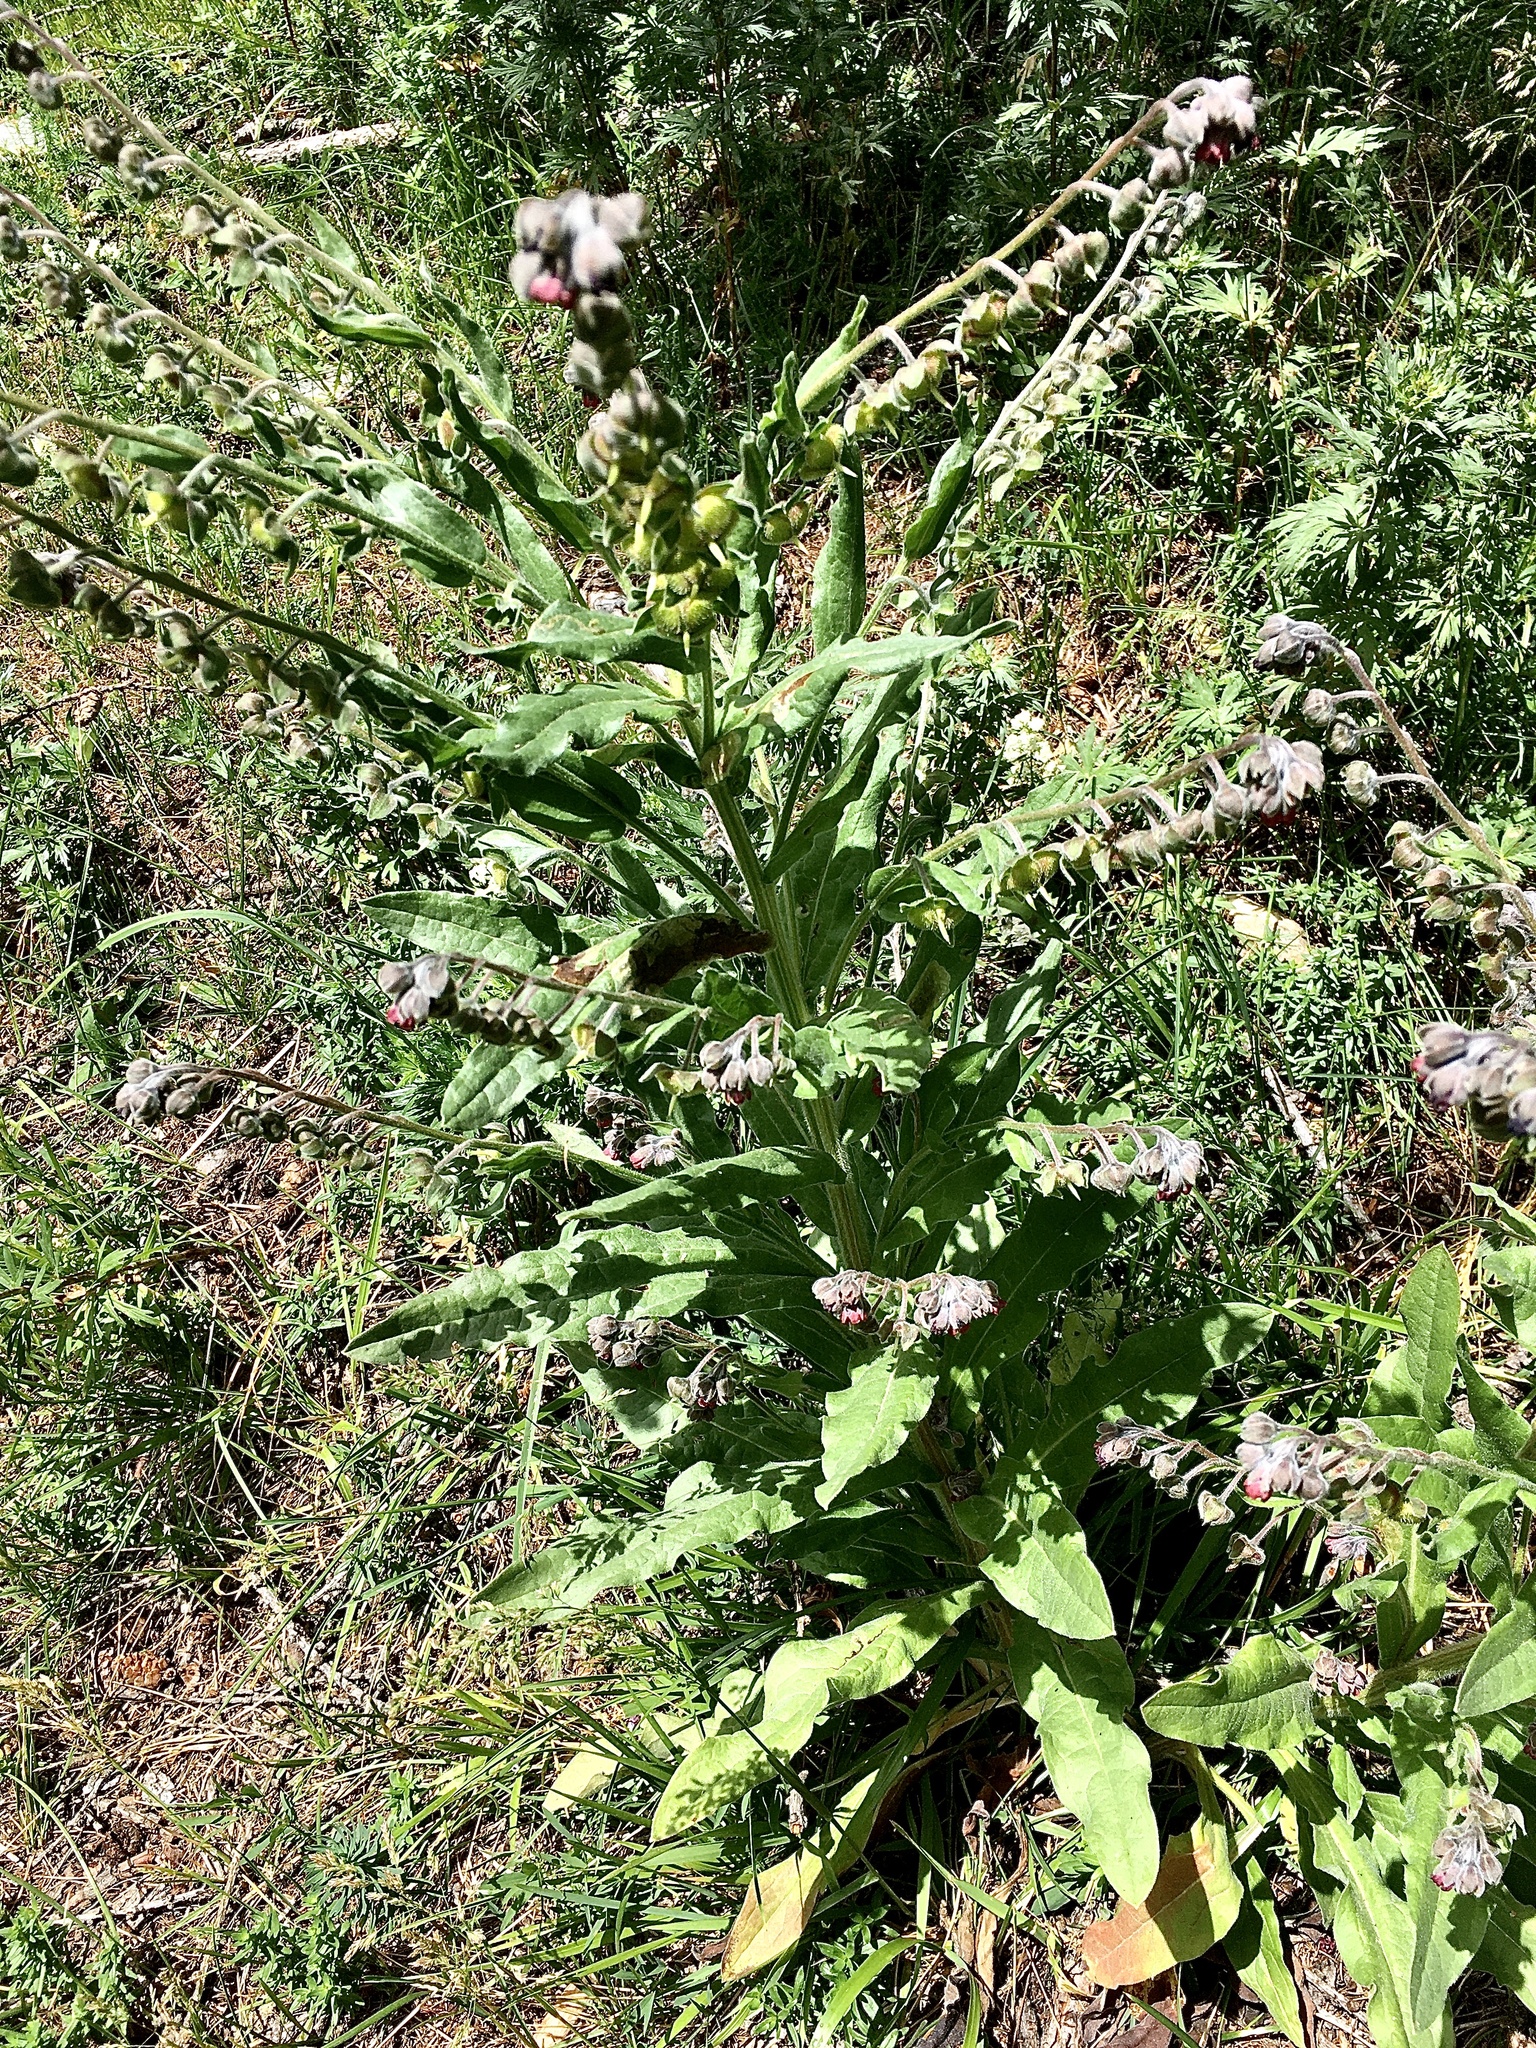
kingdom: Plantae
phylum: Tracheophyta
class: Magnoliopsida
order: Boraginales
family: Boraginaceae
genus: Cynoglossum
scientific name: Cynoglossum officinale
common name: Hound's-tongue
